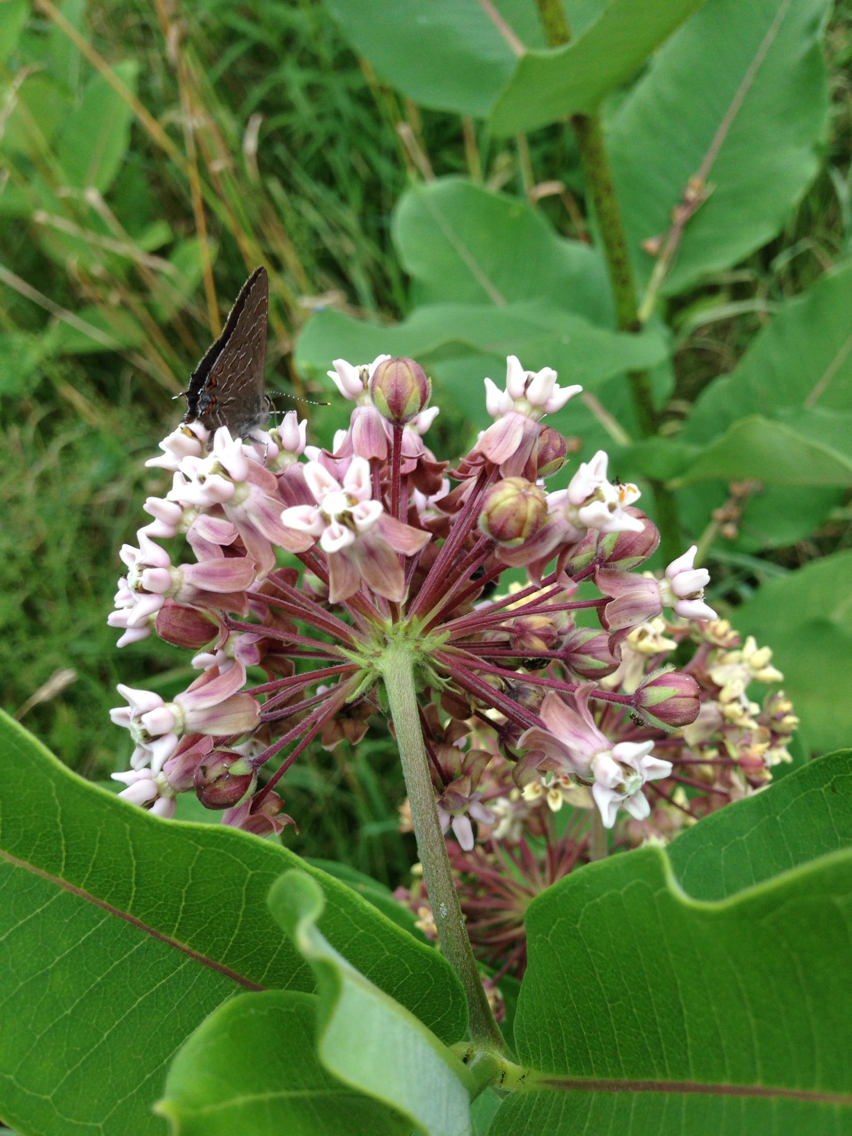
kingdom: Animalia
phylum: Arthropoda
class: Insecta
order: Lepidoptera
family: Lycaenidae
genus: Satyrium
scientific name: Satyrium liparops
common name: Striped hairstreak
